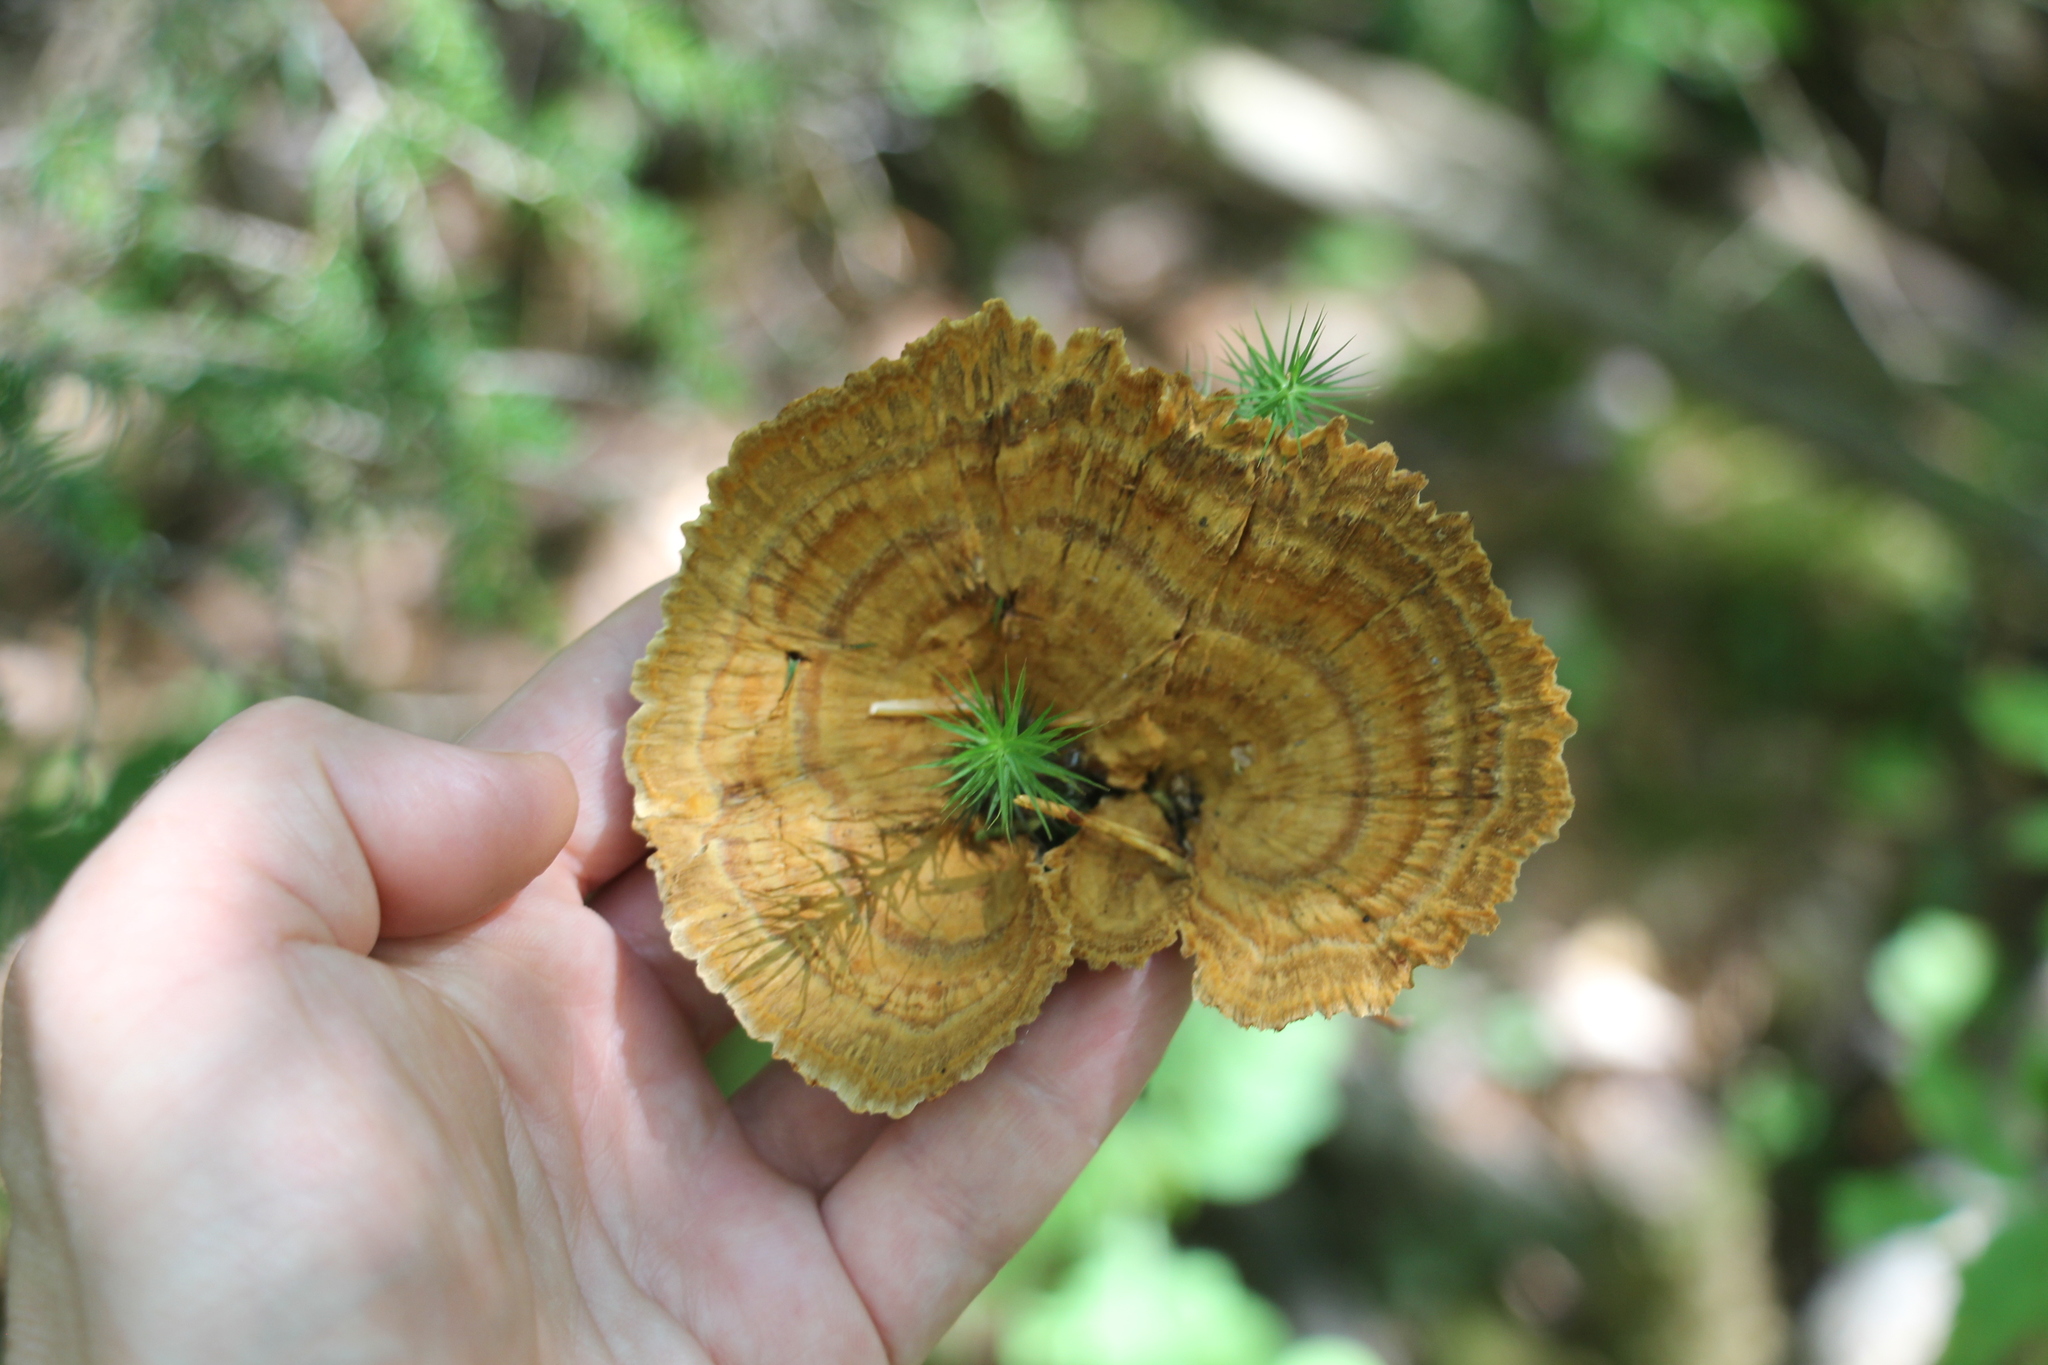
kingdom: Fungi
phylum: Basidiomycota
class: Agaricomycetes
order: Hymenochaetales
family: Hymenochaetaceae
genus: Coltricia
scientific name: Coltricia perennis
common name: Tiger's eye
